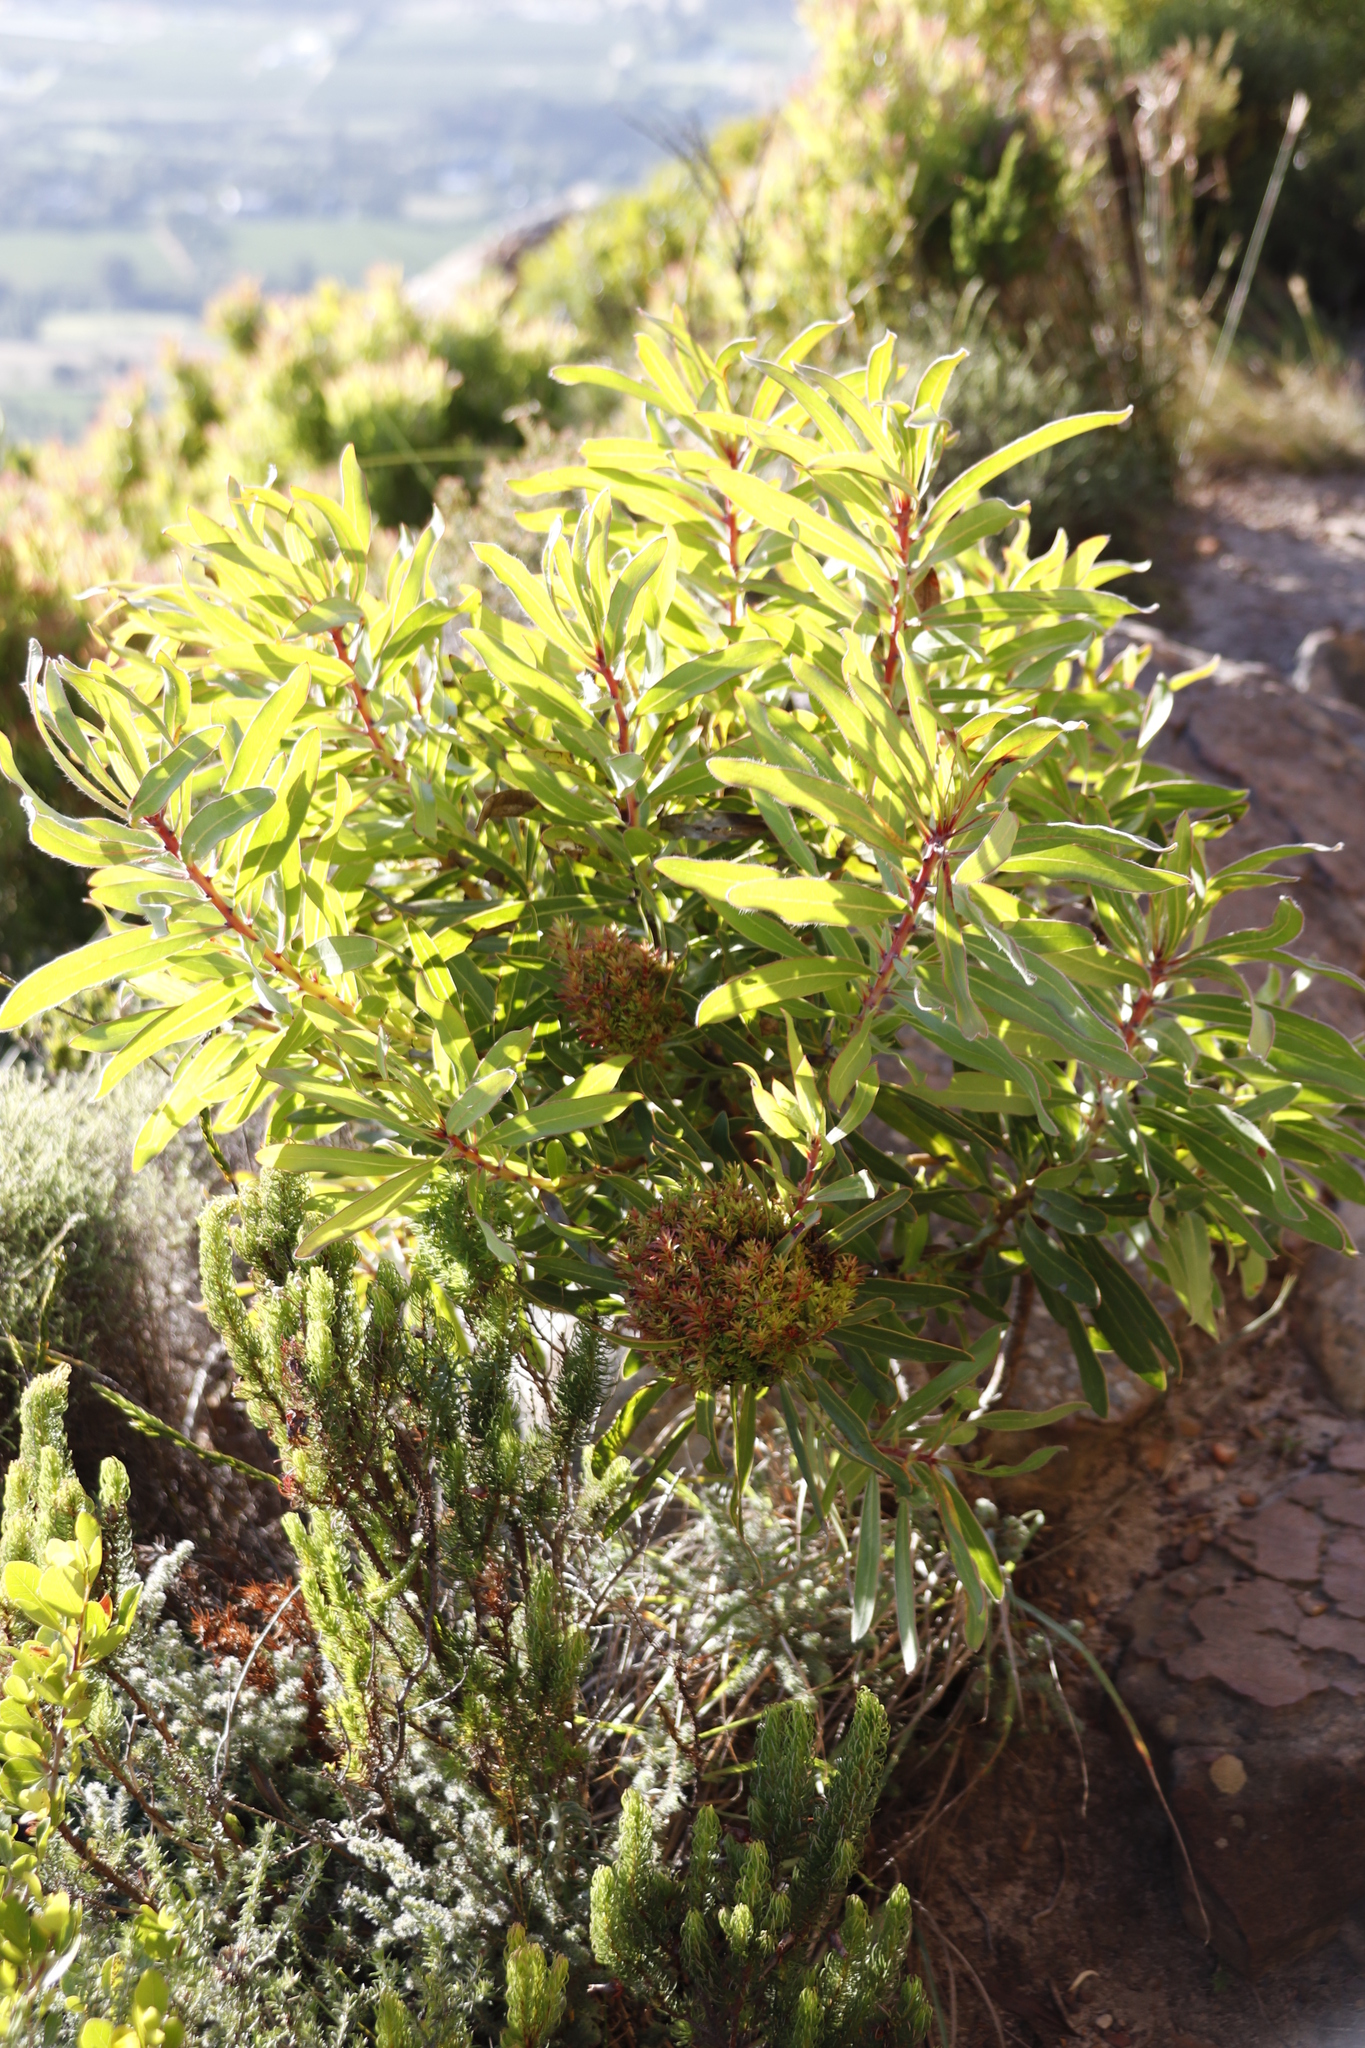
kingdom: Plantae
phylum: Tracheophyta
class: Magnoliopsida
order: Proteales
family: Proteaceae
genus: Protea
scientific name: Protea lepidocarpodendron
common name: Black-bearded protea
